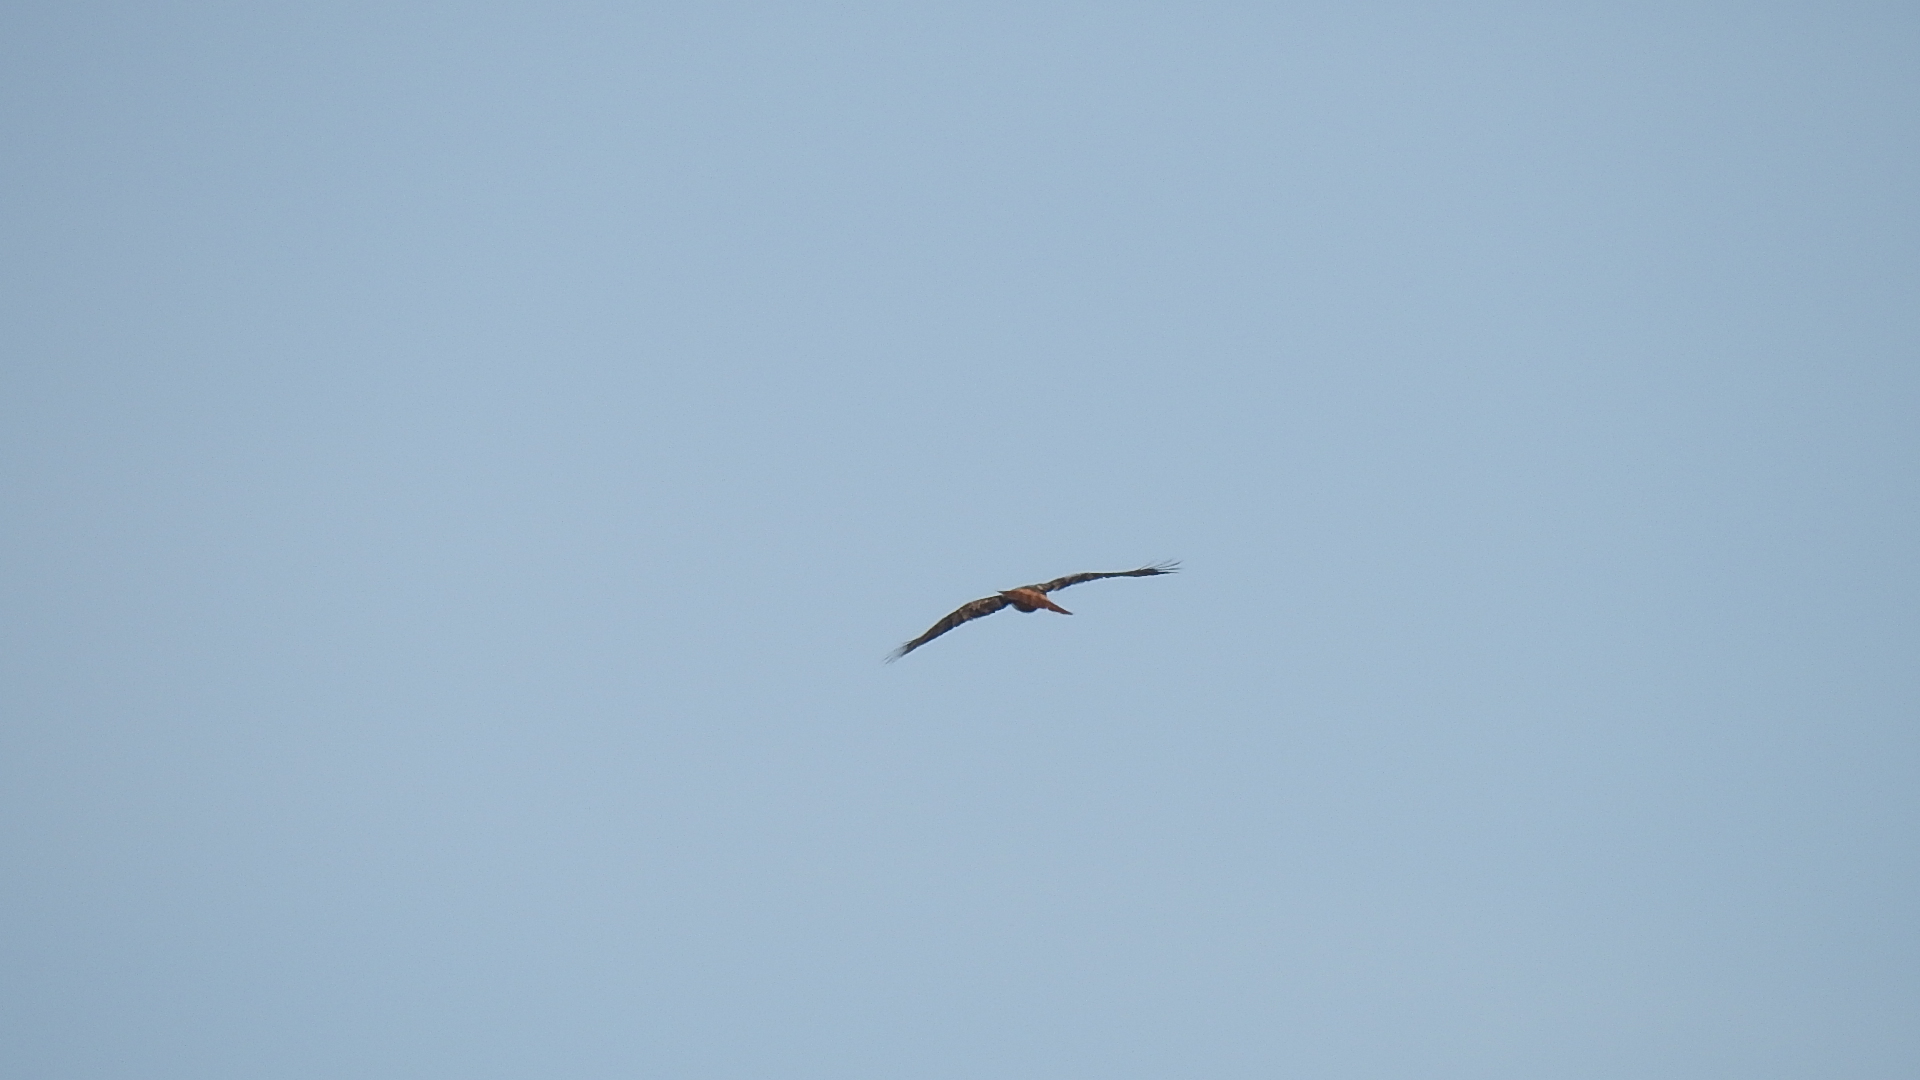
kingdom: Animalia
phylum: Chordata
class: Aves
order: Accipitriformes
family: Accipitridae
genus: Buteo
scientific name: Buteo jamaicensis
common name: Red-tailed hawk
